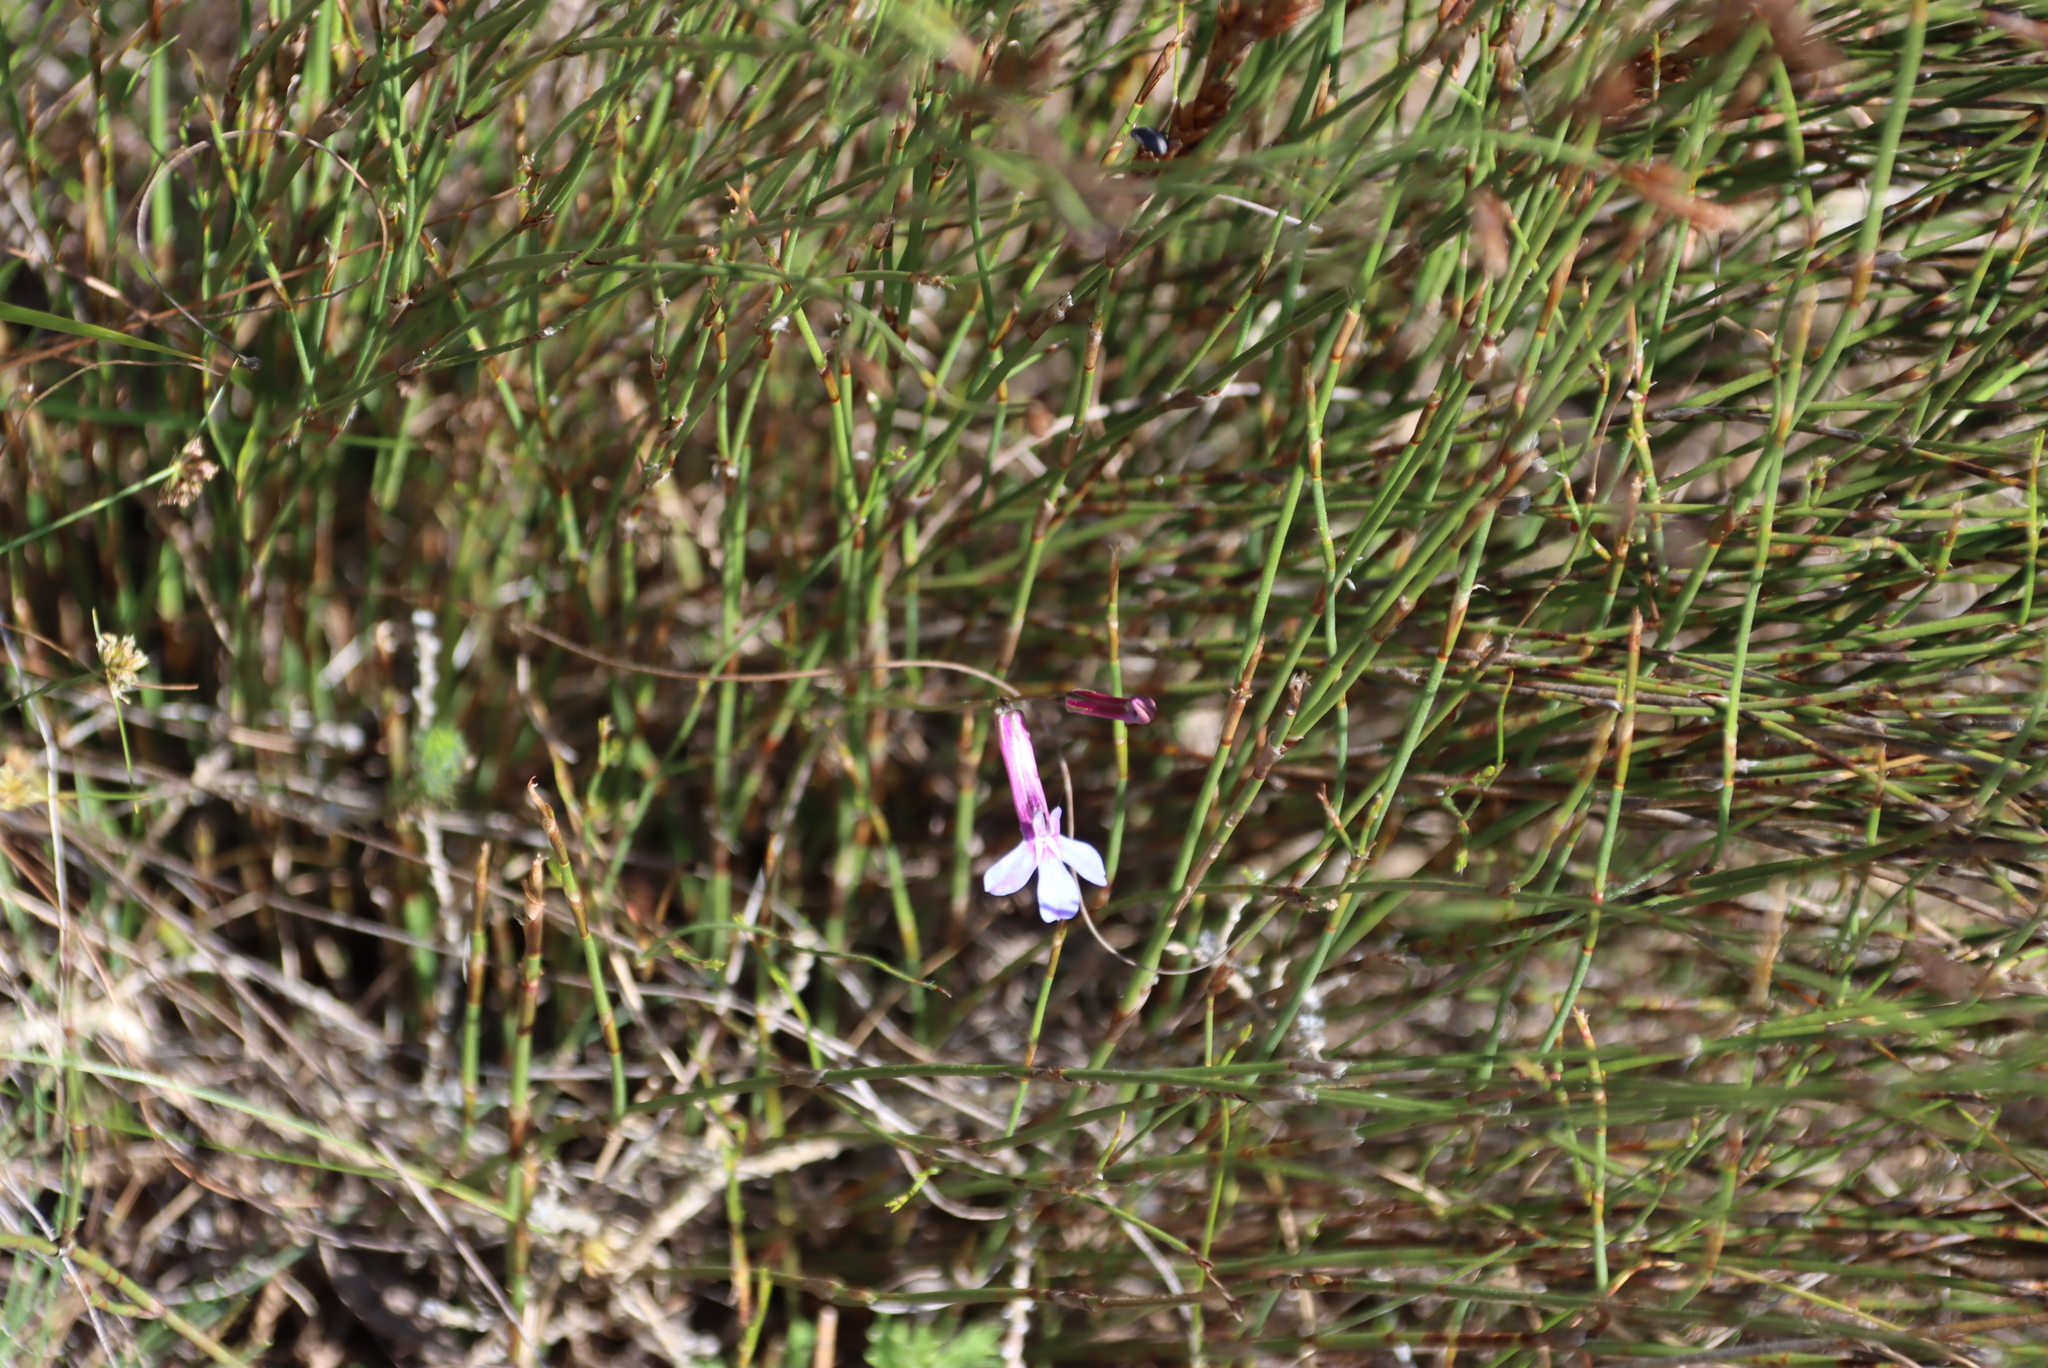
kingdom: Plantae
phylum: Tracheophyta
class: Magnoliopsida
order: Asterales
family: Campanulaceae
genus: Lobelia
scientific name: Lobelia chamaepitys
